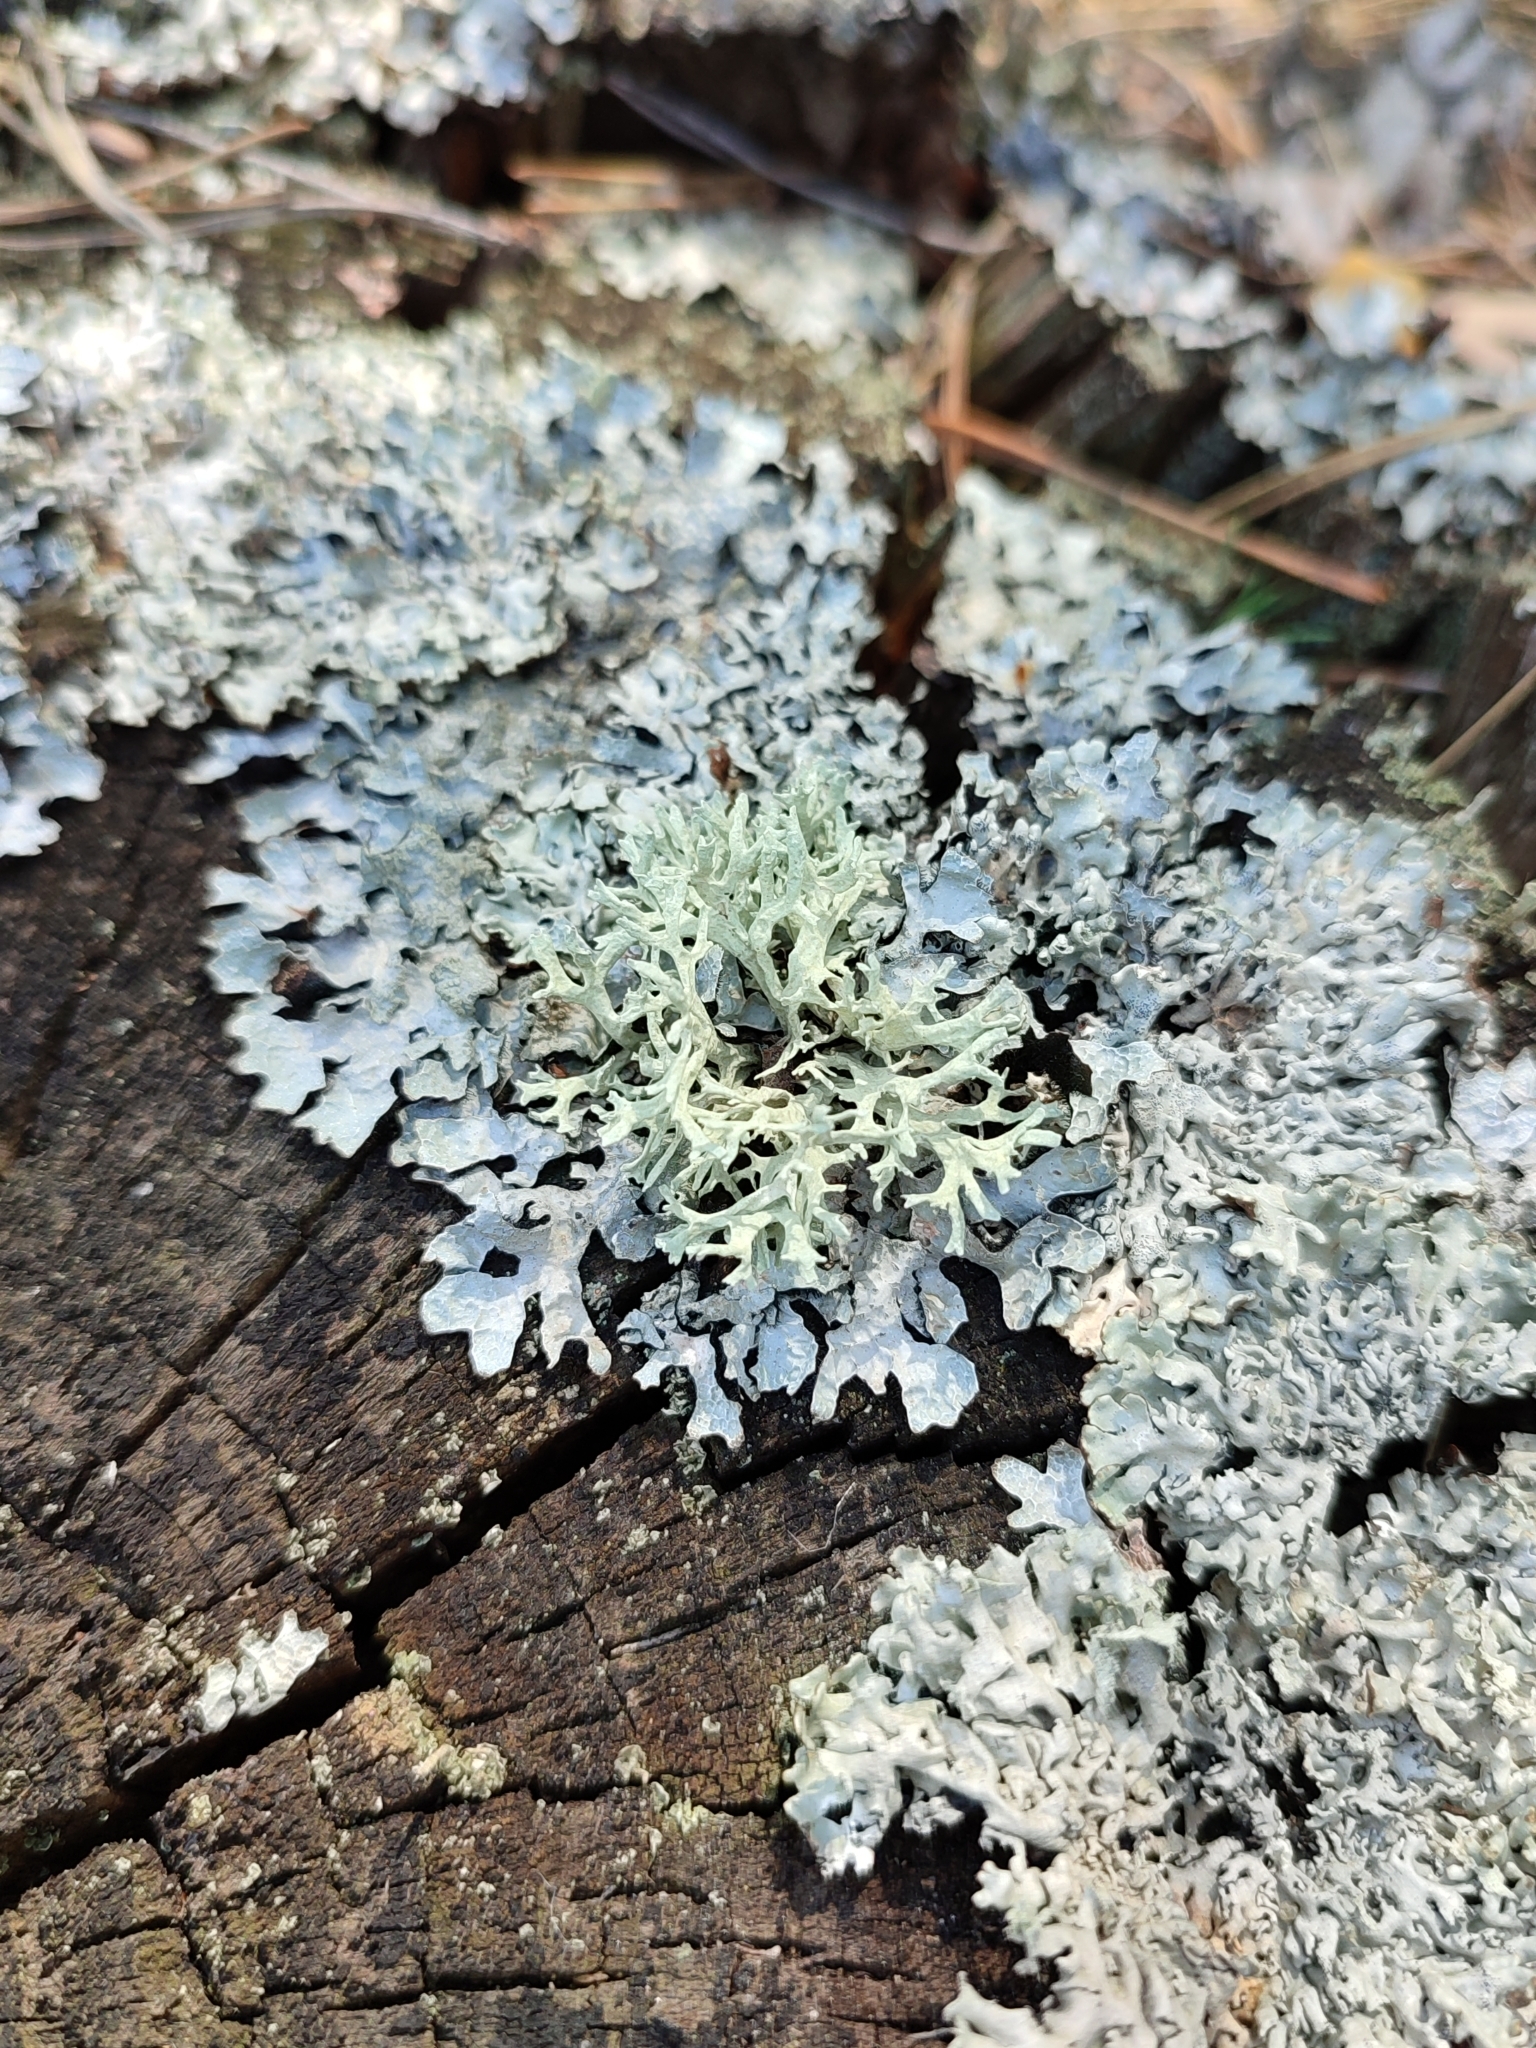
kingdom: Fungi
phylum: Ascomycota
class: Lecanoromycetes
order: Lecanorales
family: Parmeliaceae
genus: Evernia
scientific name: Evernia prunastri
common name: Oak moss
